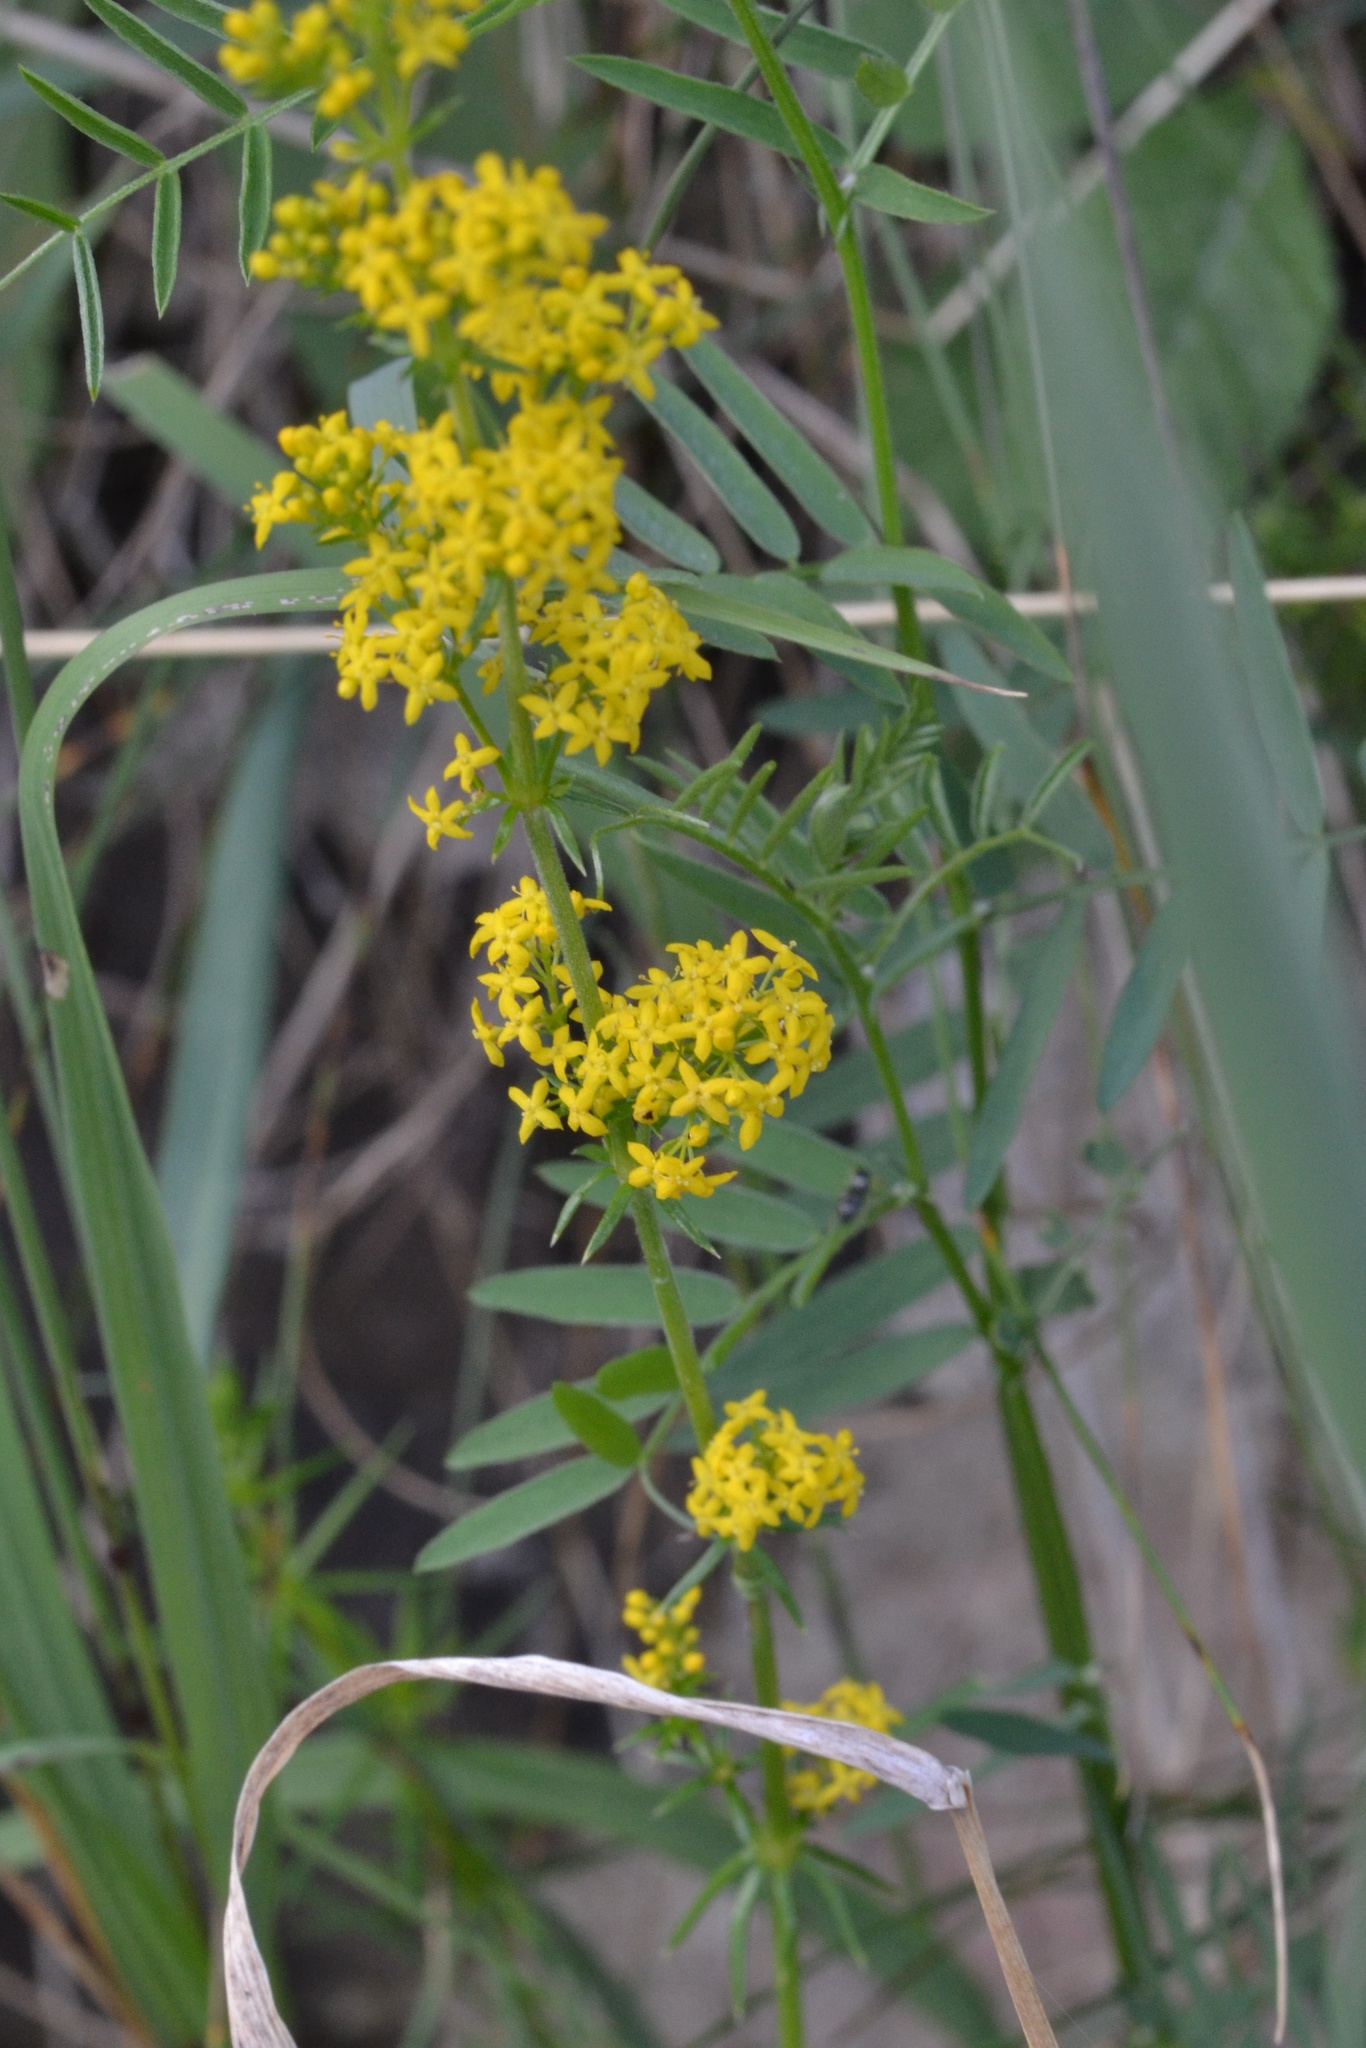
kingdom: Plantae
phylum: Tracheophyta
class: Magnoliopsida
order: Gentianales
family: Rubiaceae
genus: Galium
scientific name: Galium verum
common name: Lady's bedstraw
